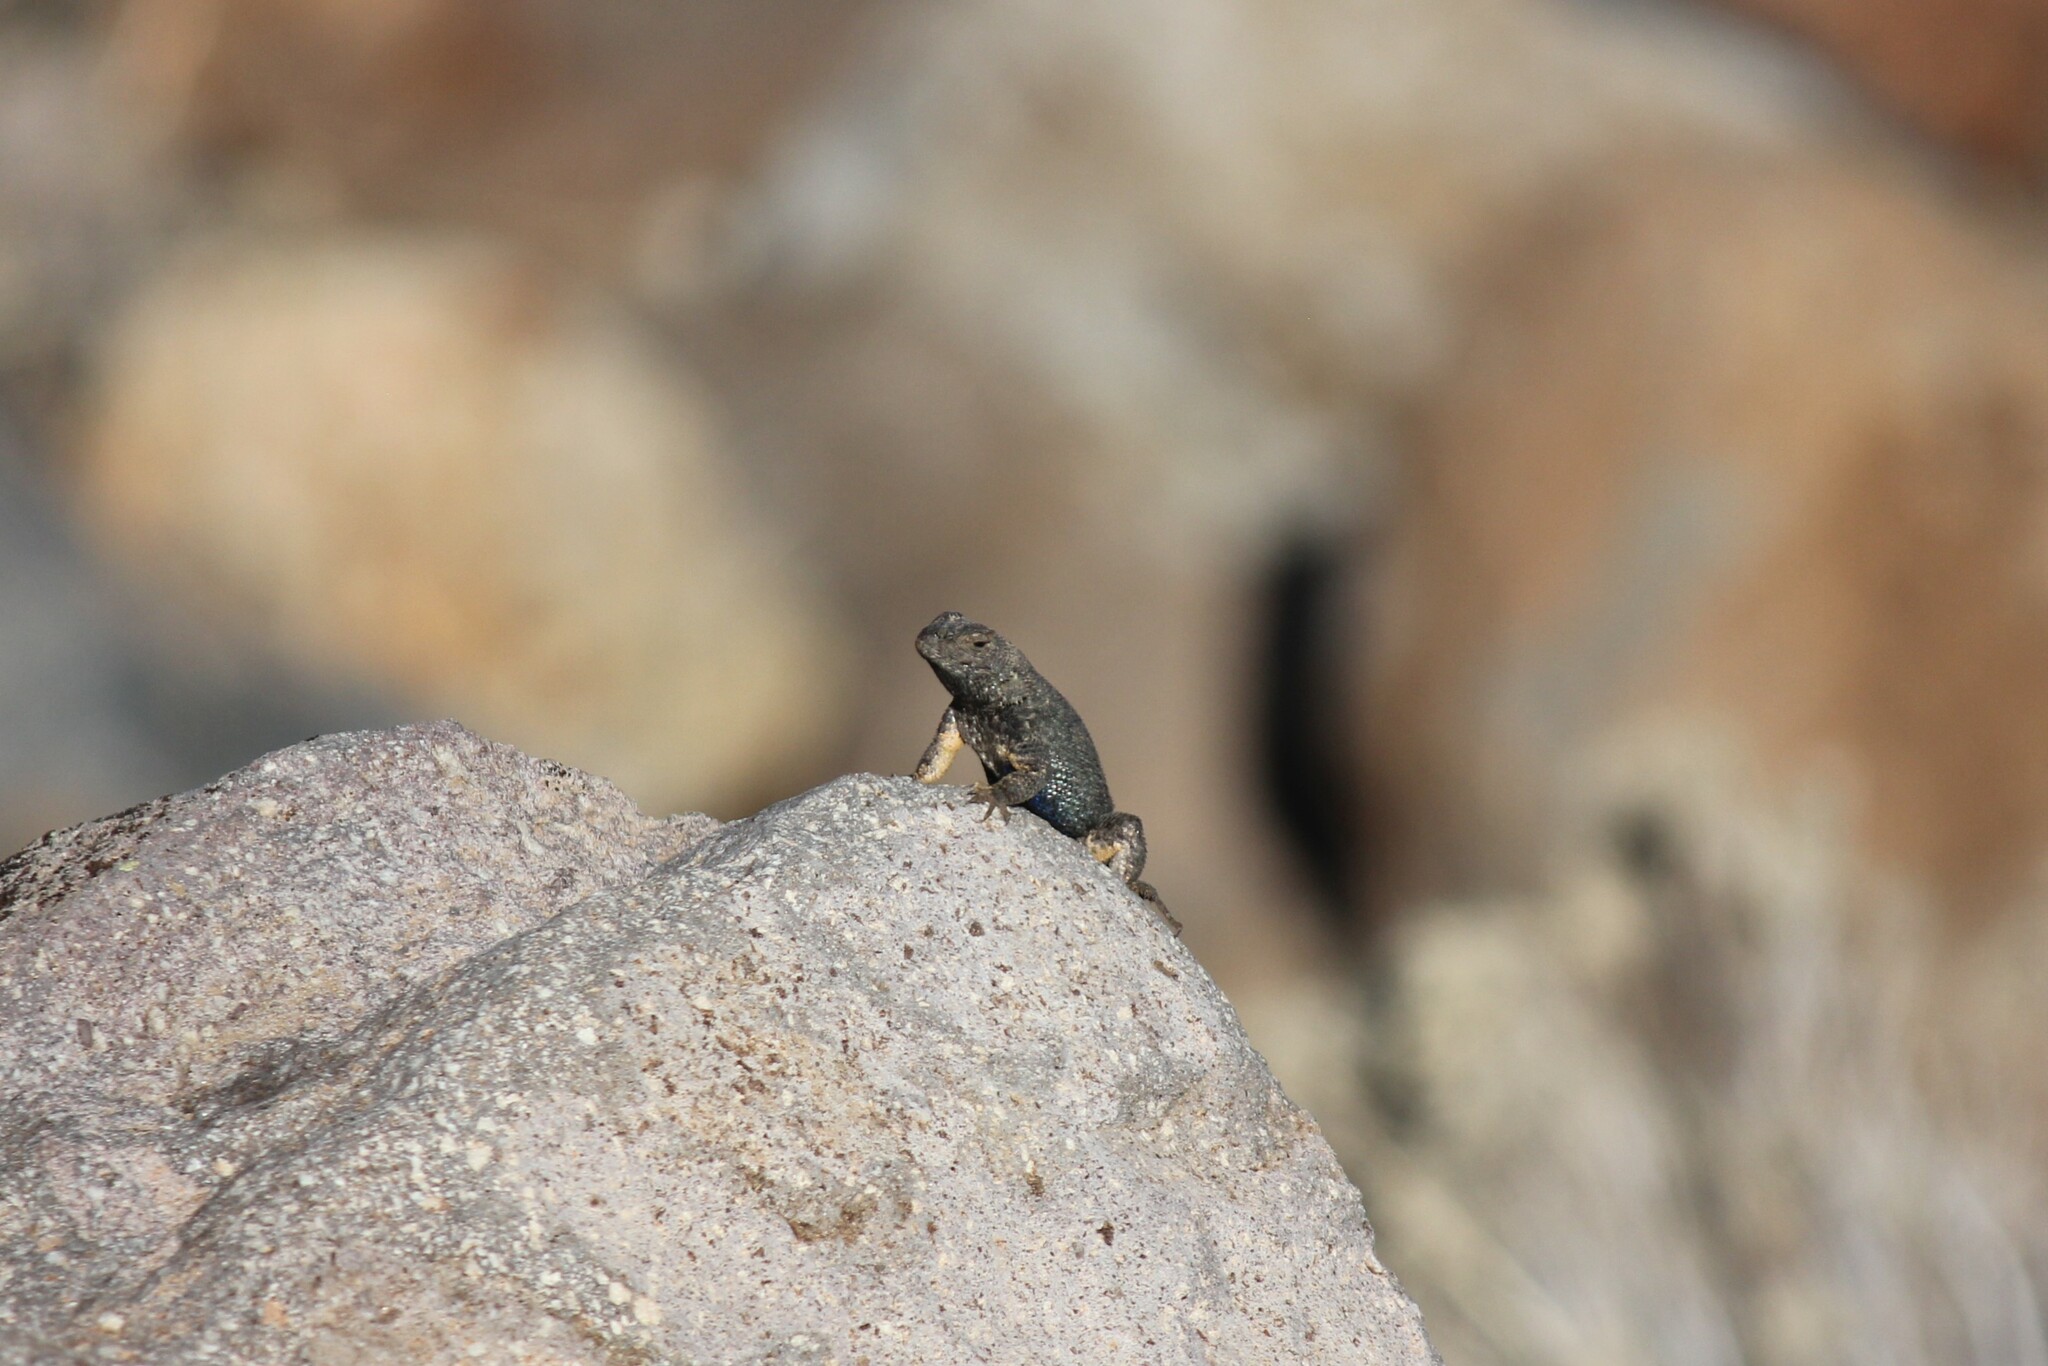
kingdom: Animalia
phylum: Chordata
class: Squamata
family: Phrynosomatidae
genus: Sceloporus
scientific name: Sceloporus occidentalis
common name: Western fence lizard
